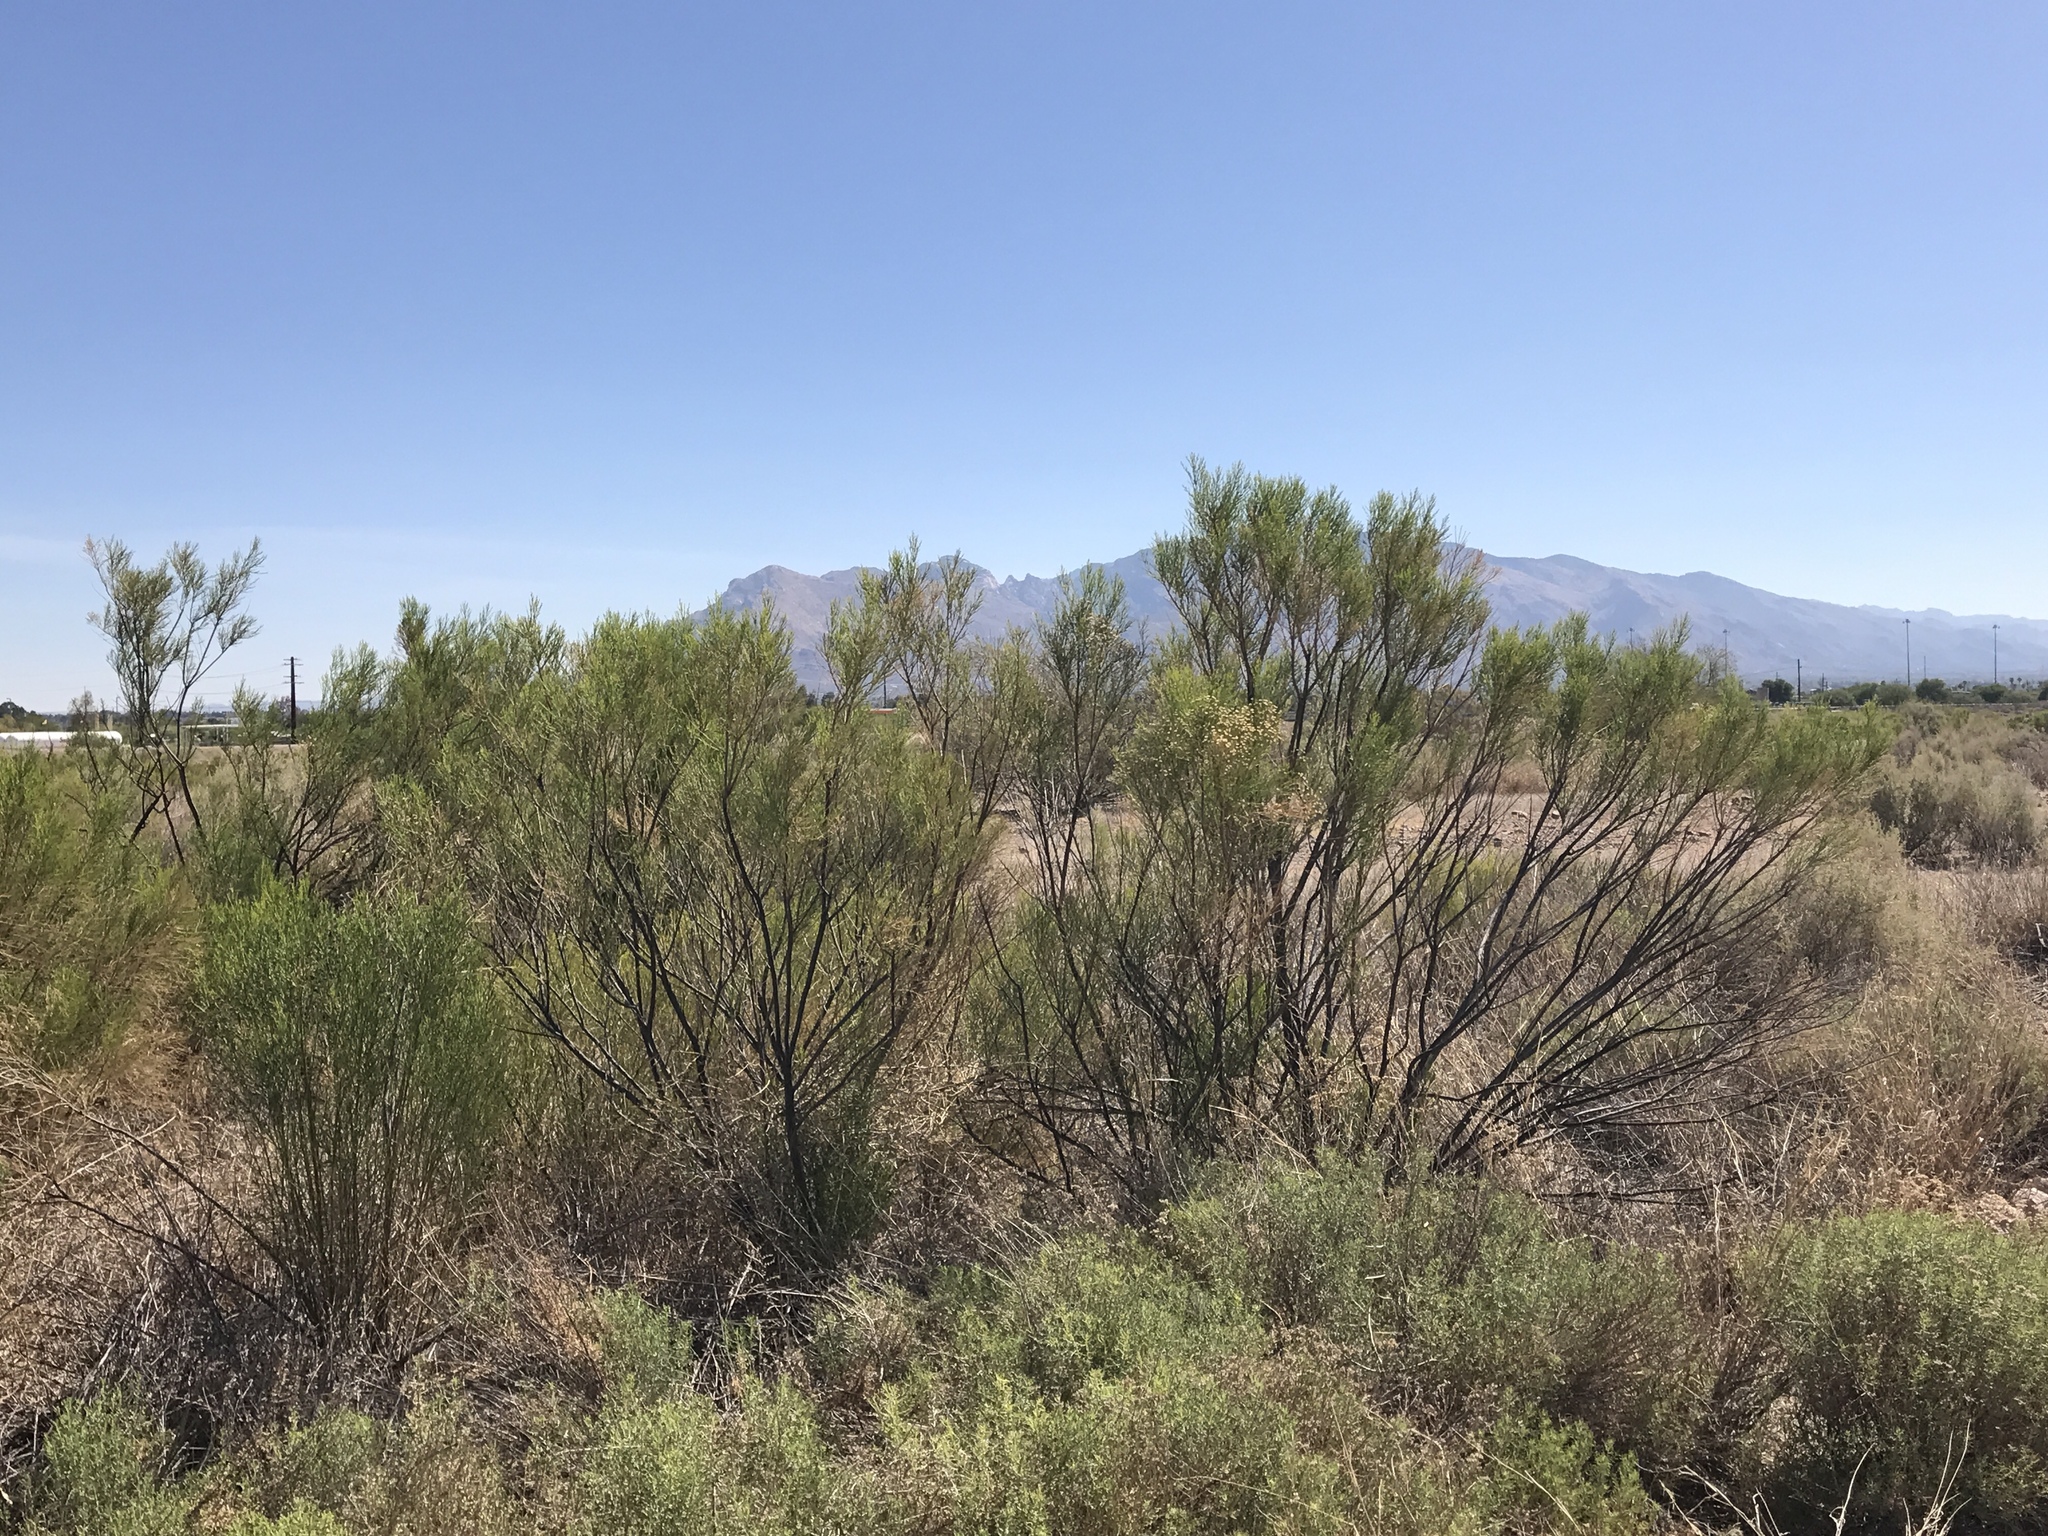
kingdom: Plantae
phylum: Tracheophyta
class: Magnoliopsida
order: Asterales
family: Asteraceae
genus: Baccharis
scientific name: Baccharis sarothroides
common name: Desert-broom
